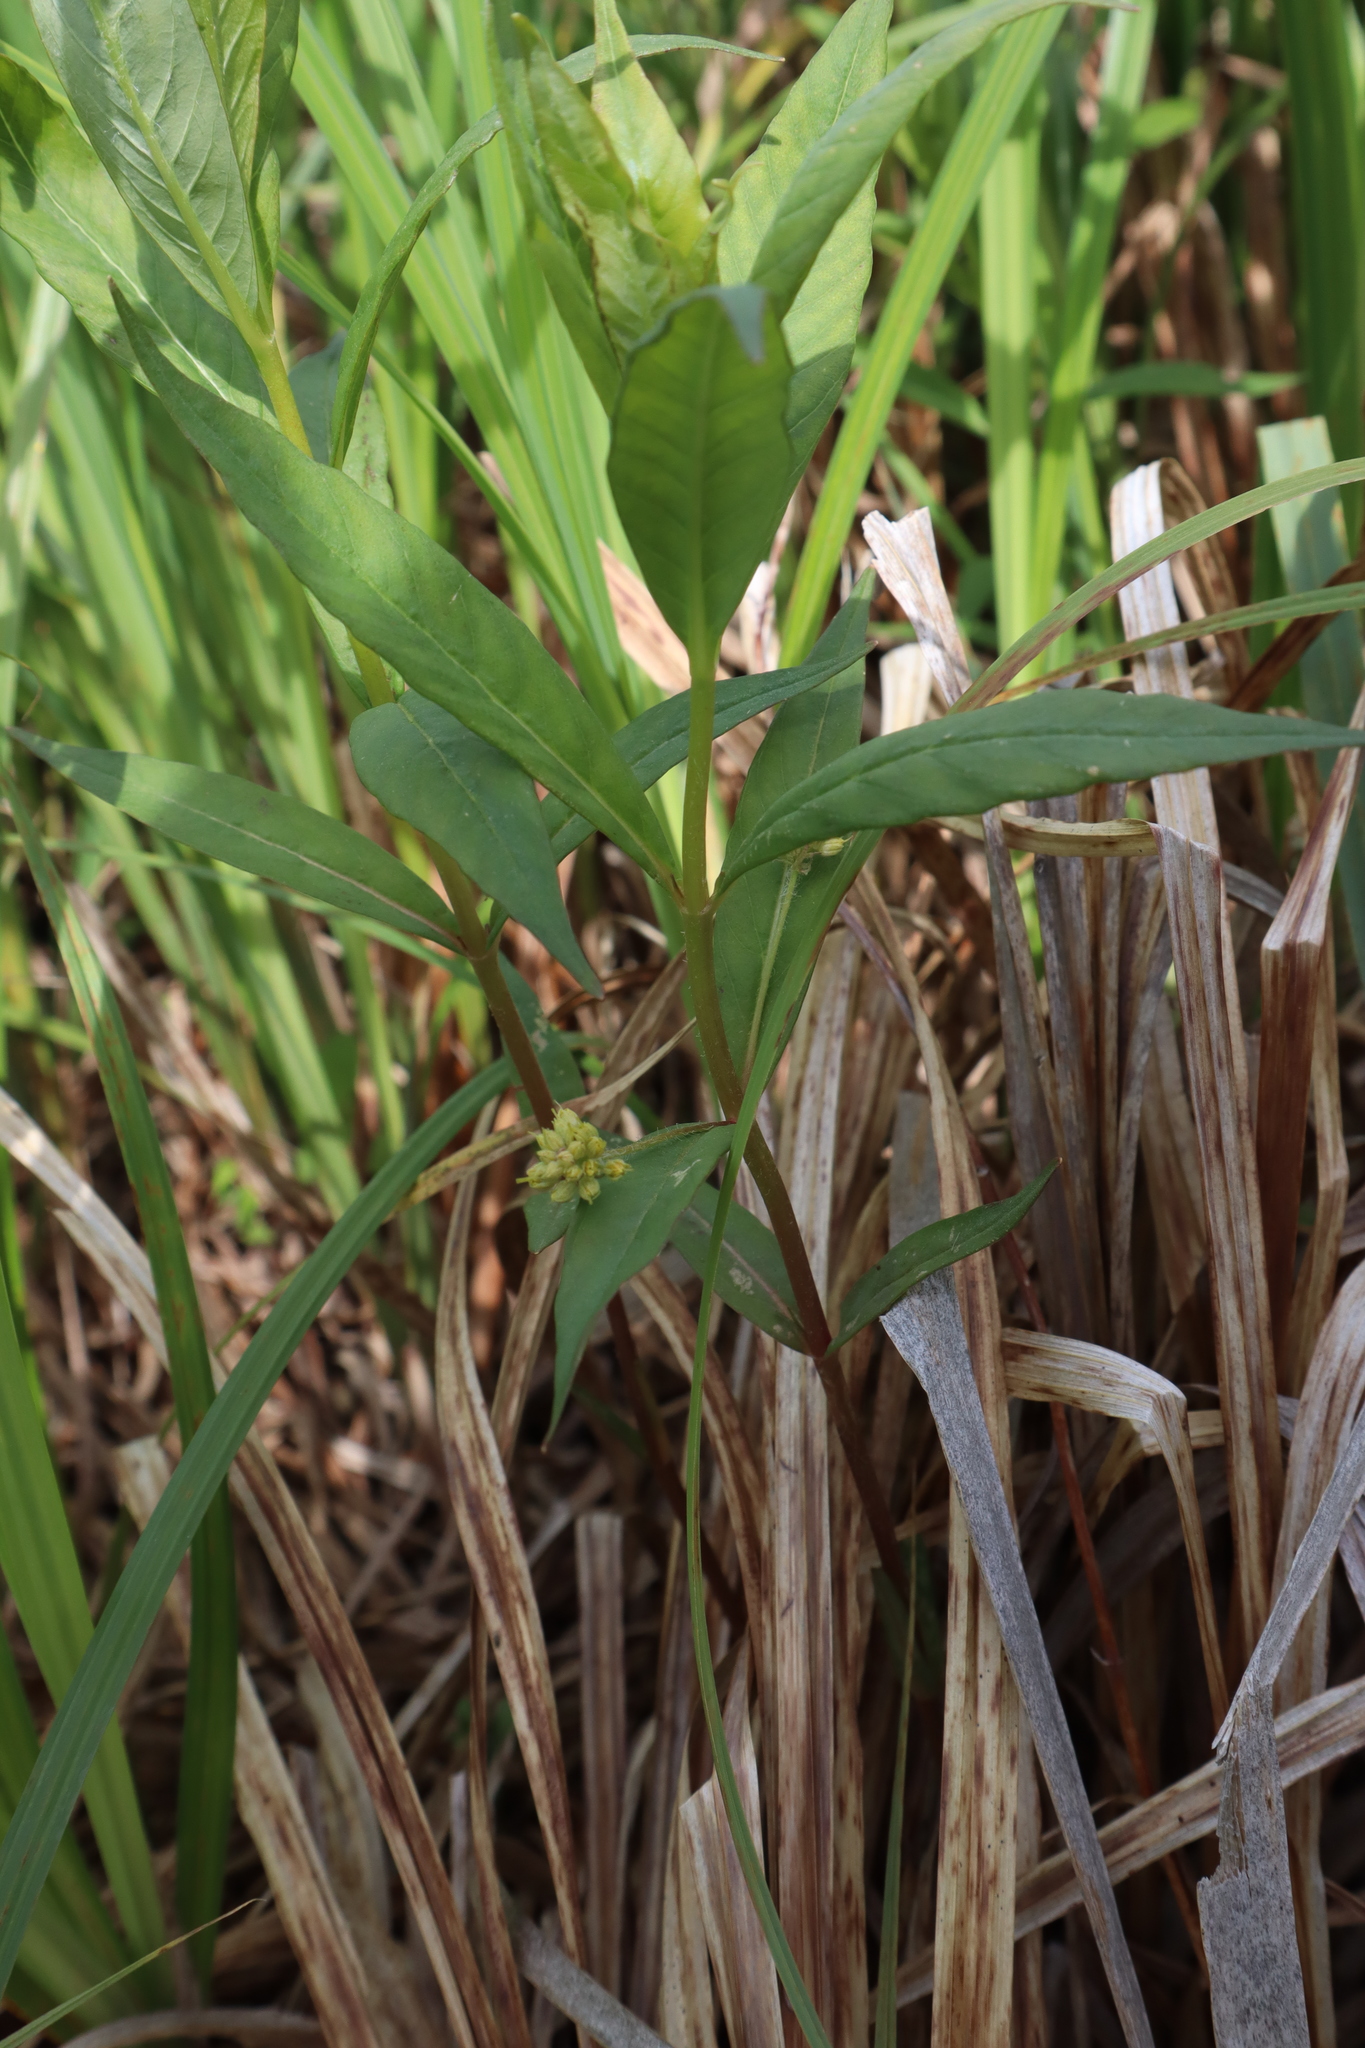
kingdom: Plantae
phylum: Tracheophyta
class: Magnoliopsida
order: Ericales
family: Primulaceae
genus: Lysimachia
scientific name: Lysimachia thyrsiflora
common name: Tufted loosestrife
